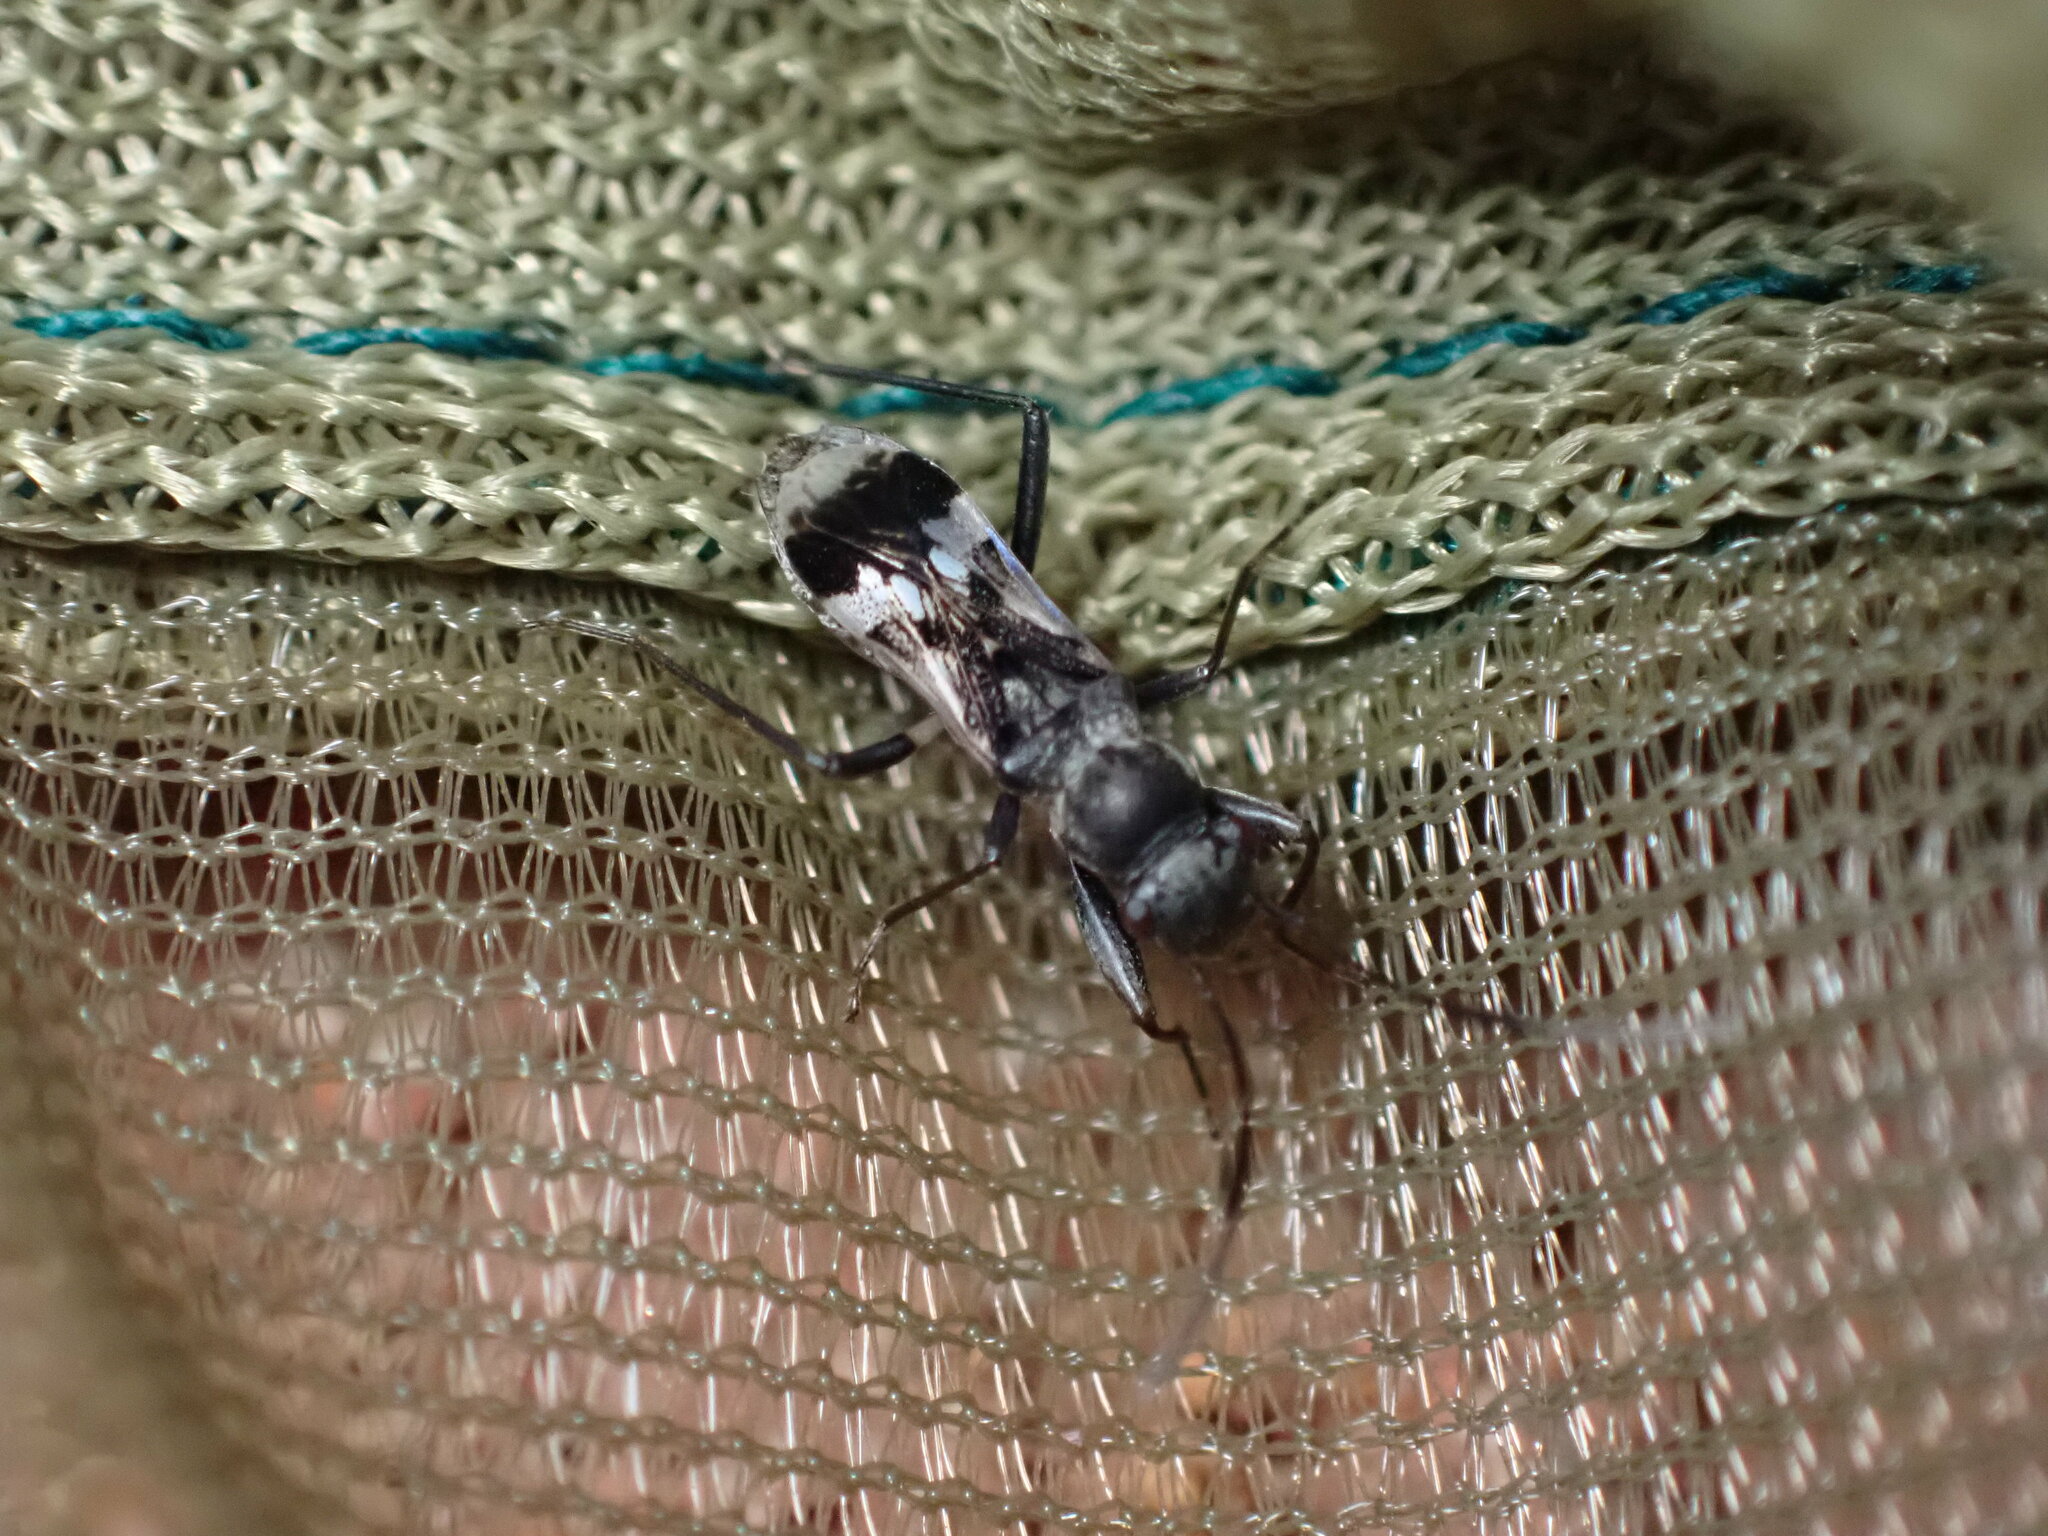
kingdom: Animalia
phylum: Arthropoda
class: Insecta
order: Hemiptera
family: Rhyparochromidae
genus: Eucosmetus
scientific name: Eucosmetus formosus
